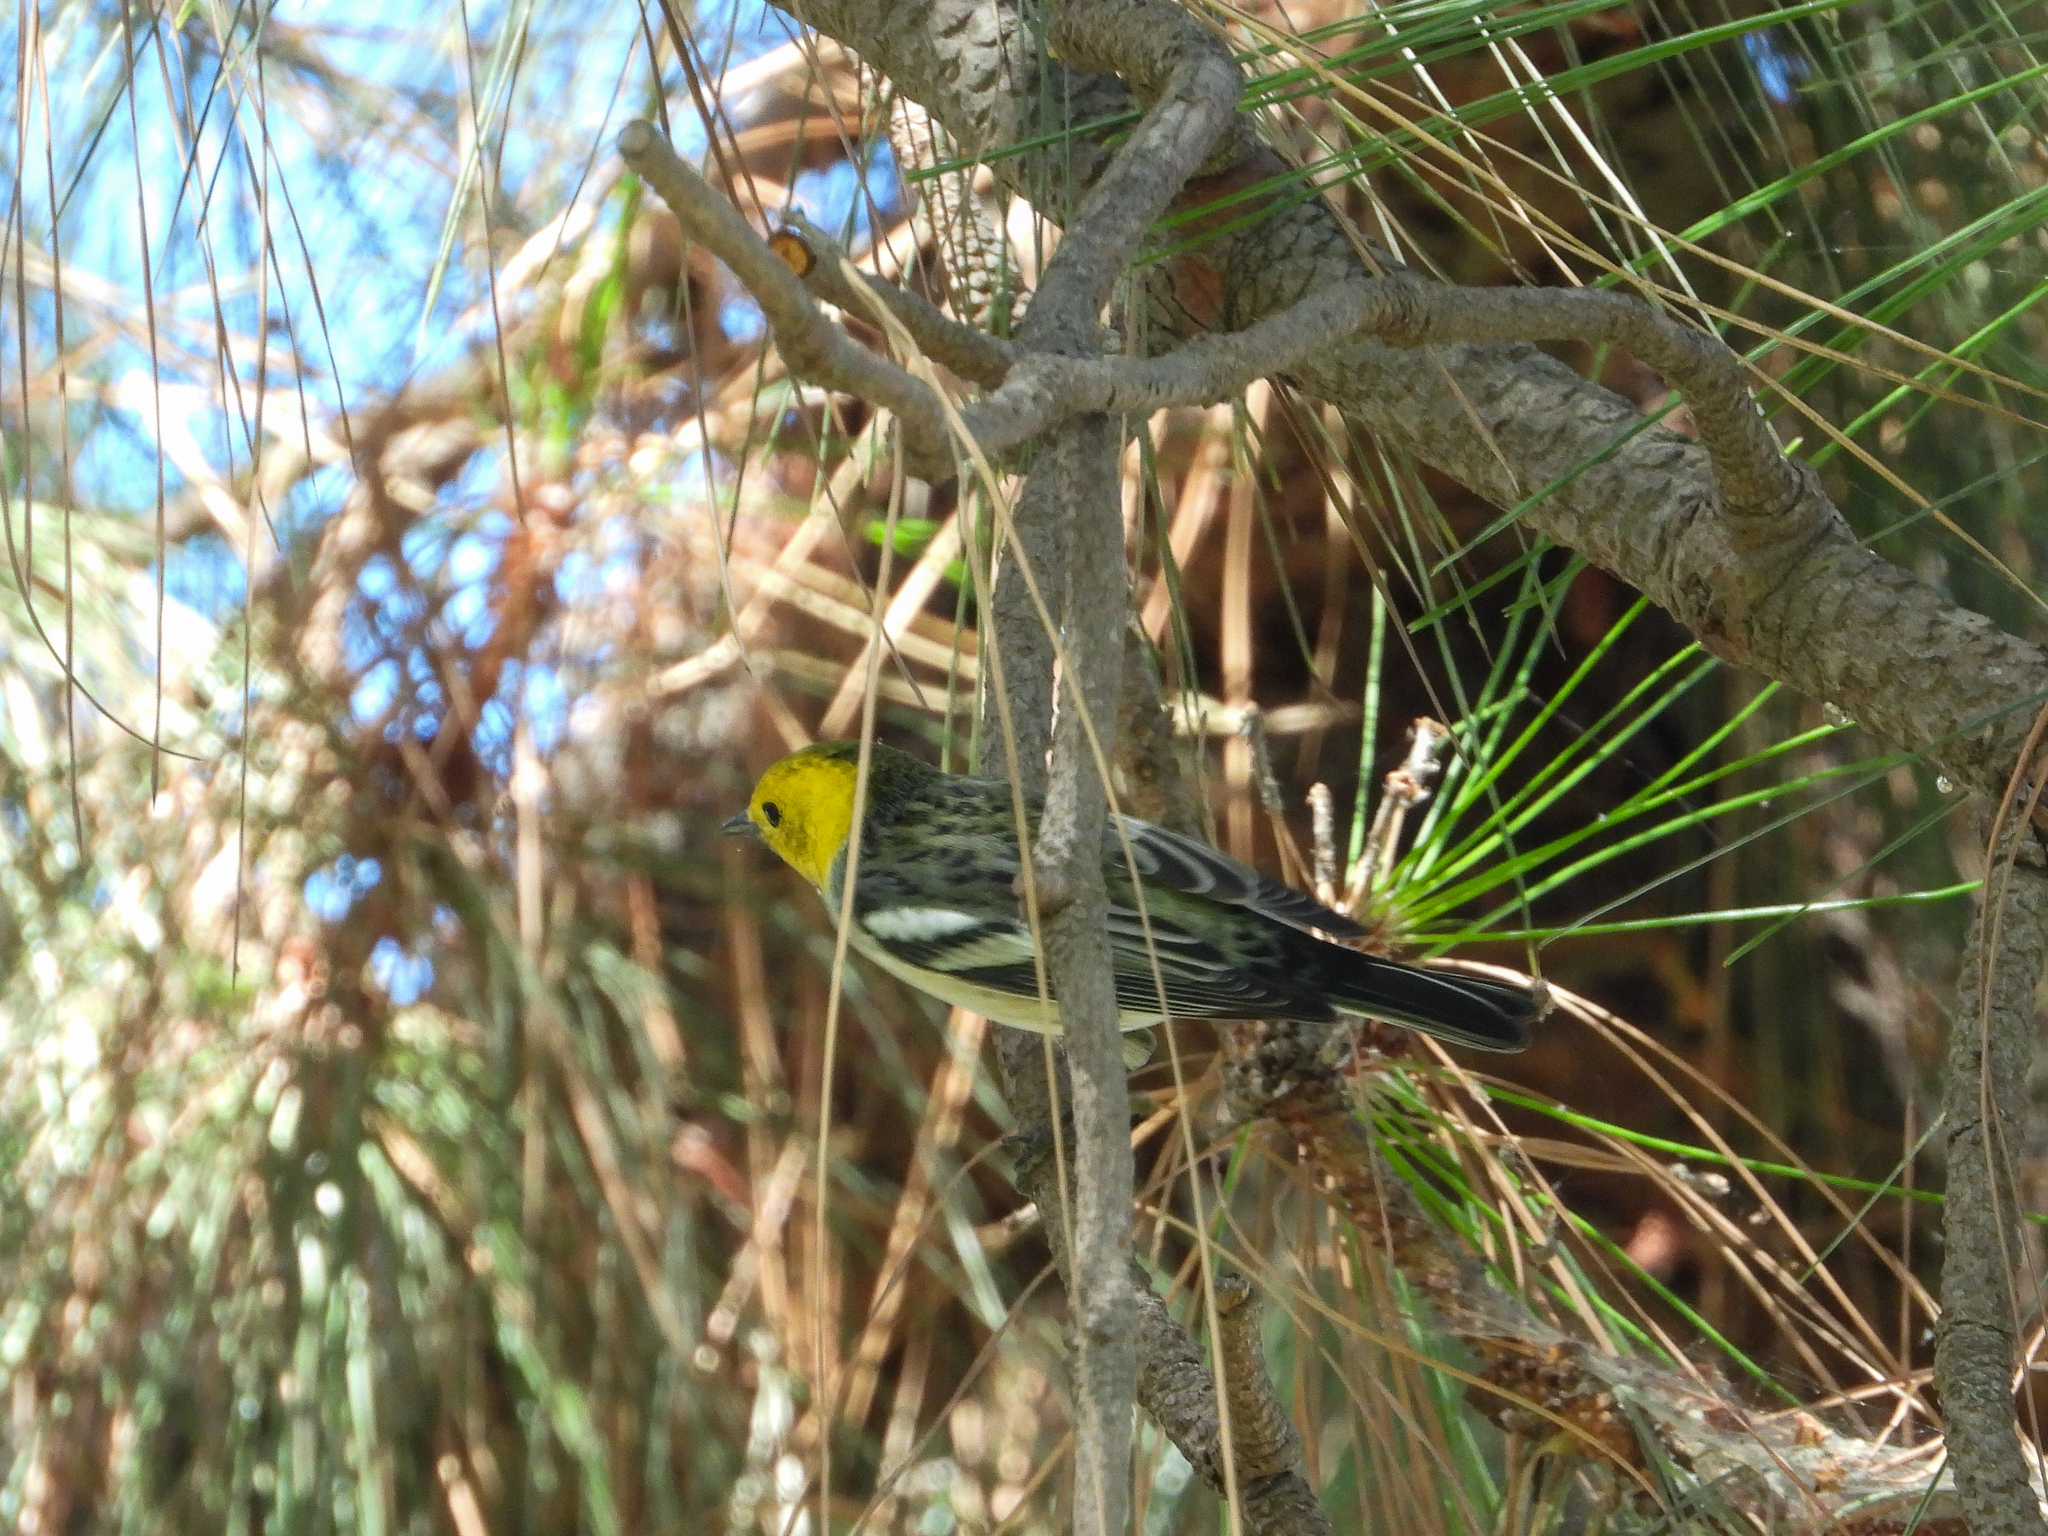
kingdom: Animalia
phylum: Chordata
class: Aves
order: Passeriformes
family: Parulidae
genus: Setophaga
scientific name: Setophaga occidentalis
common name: Hermit warbler
